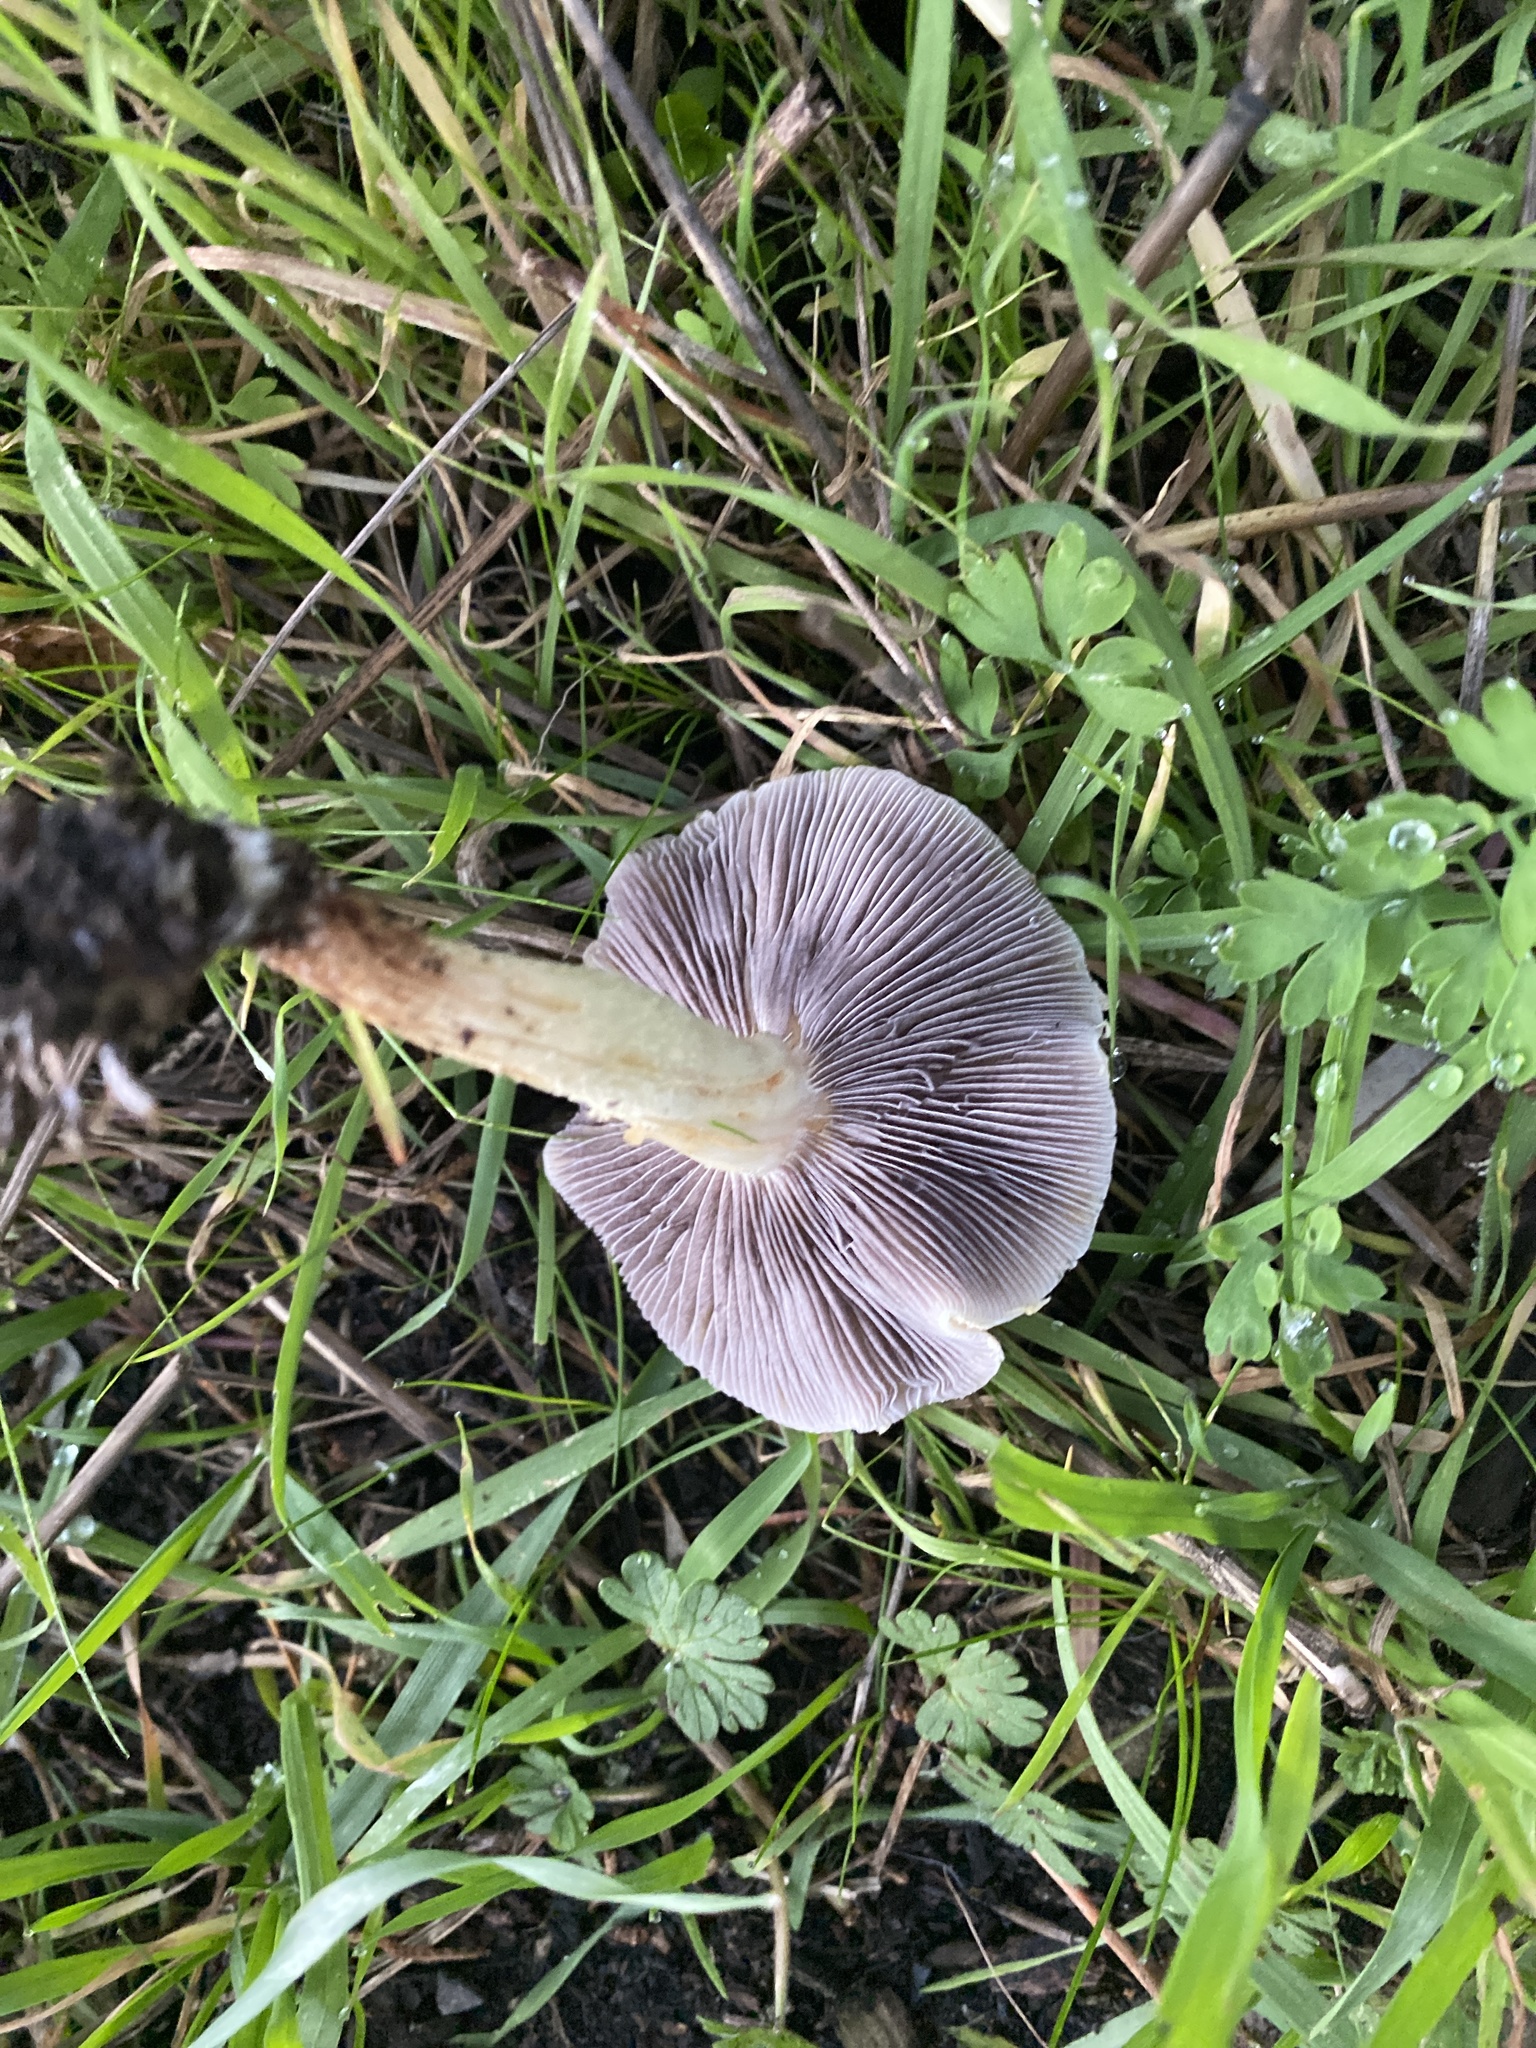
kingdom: Fungi
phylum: Basidiomycota
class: Agaricomycetes
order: Agaricales
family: Strophariaceae
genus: Leratiomyces
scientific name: Leratiomyces percevalii
